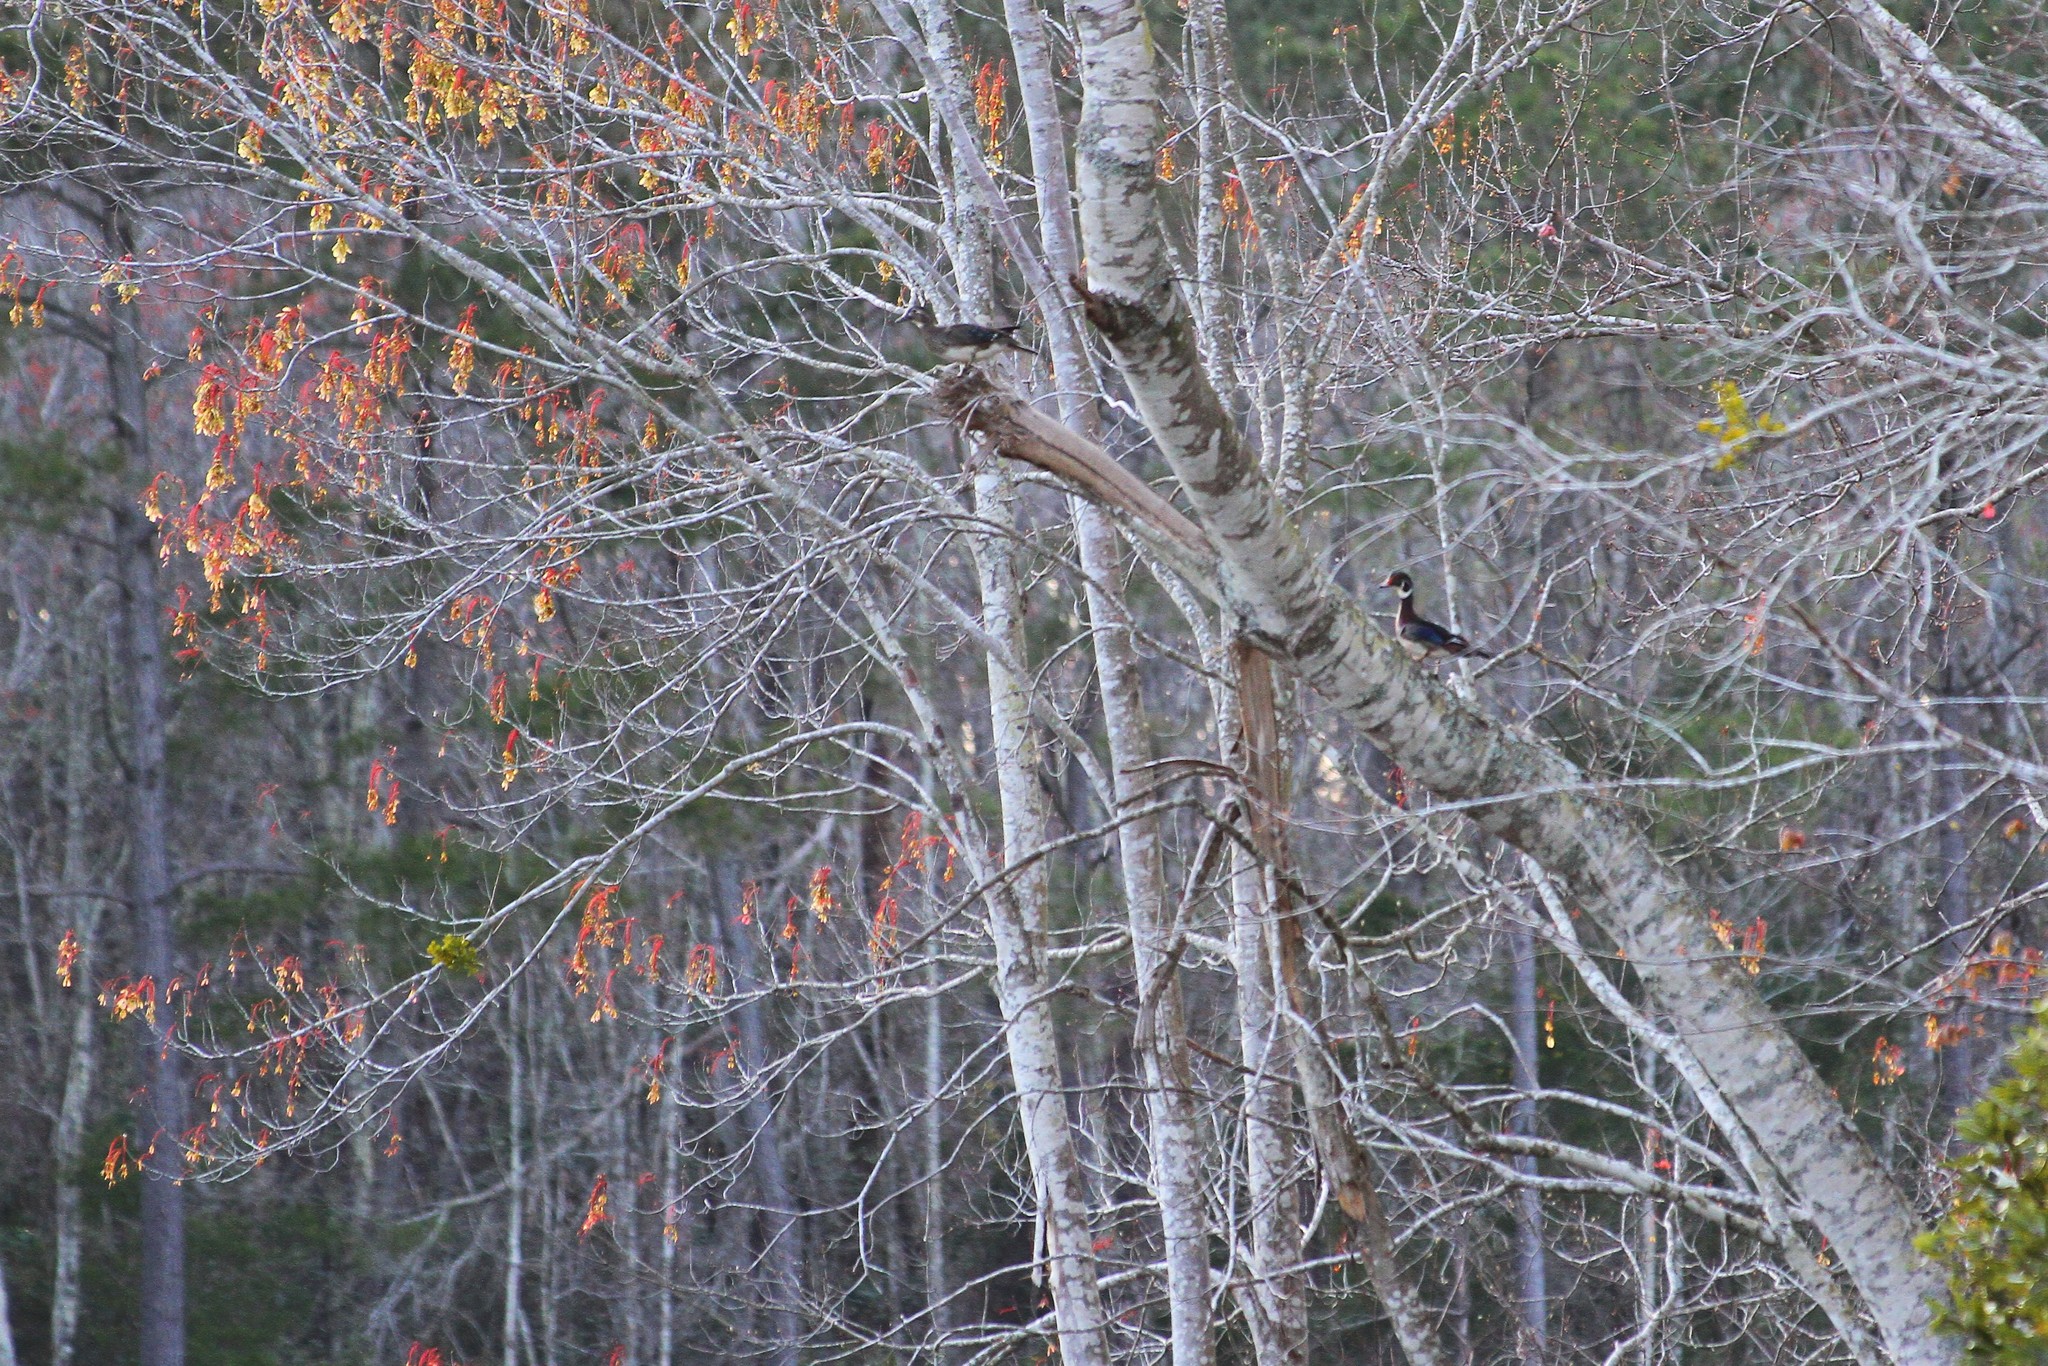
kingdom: Animalia
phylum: Chordata
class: Aves
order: Anseriformes
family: Anatidae
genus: Aix
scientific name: Aix sponsa
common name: Wood duck
